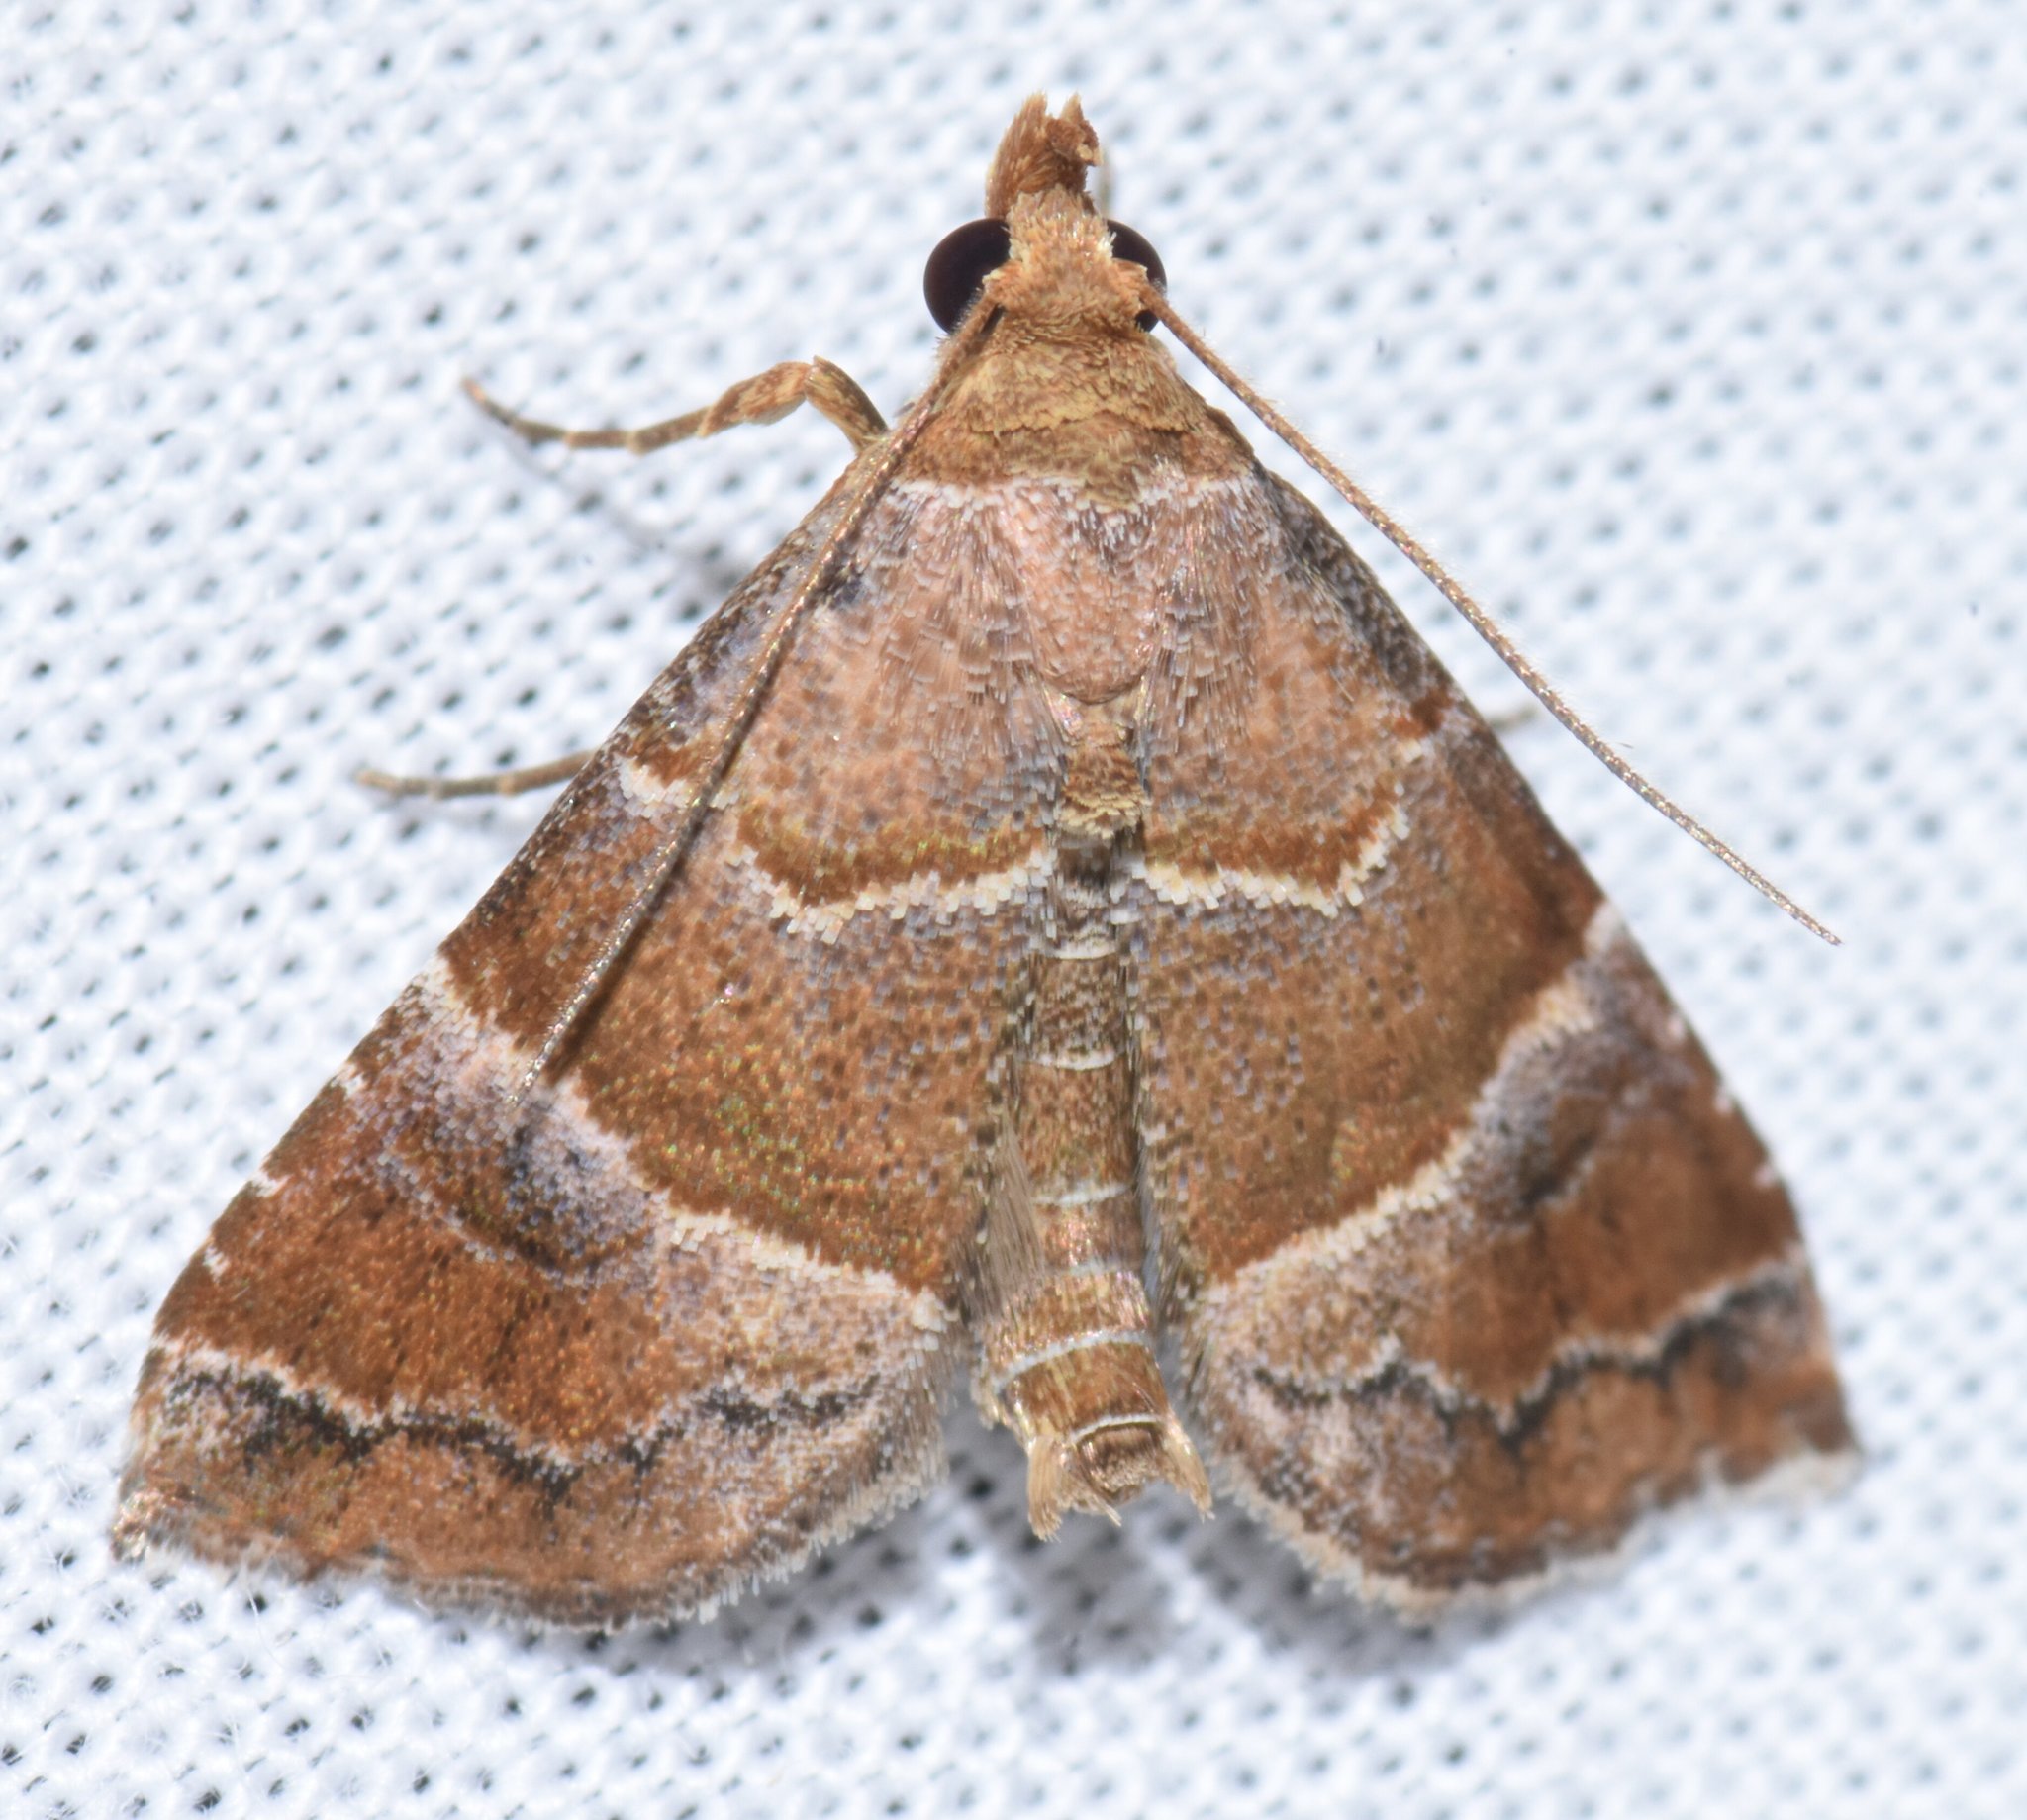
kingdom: Animalia
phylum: Arthropoda
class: Insecta
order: Lepidoptera
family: Erebidae
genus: Cecharismena
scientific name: Cecharismena cara
